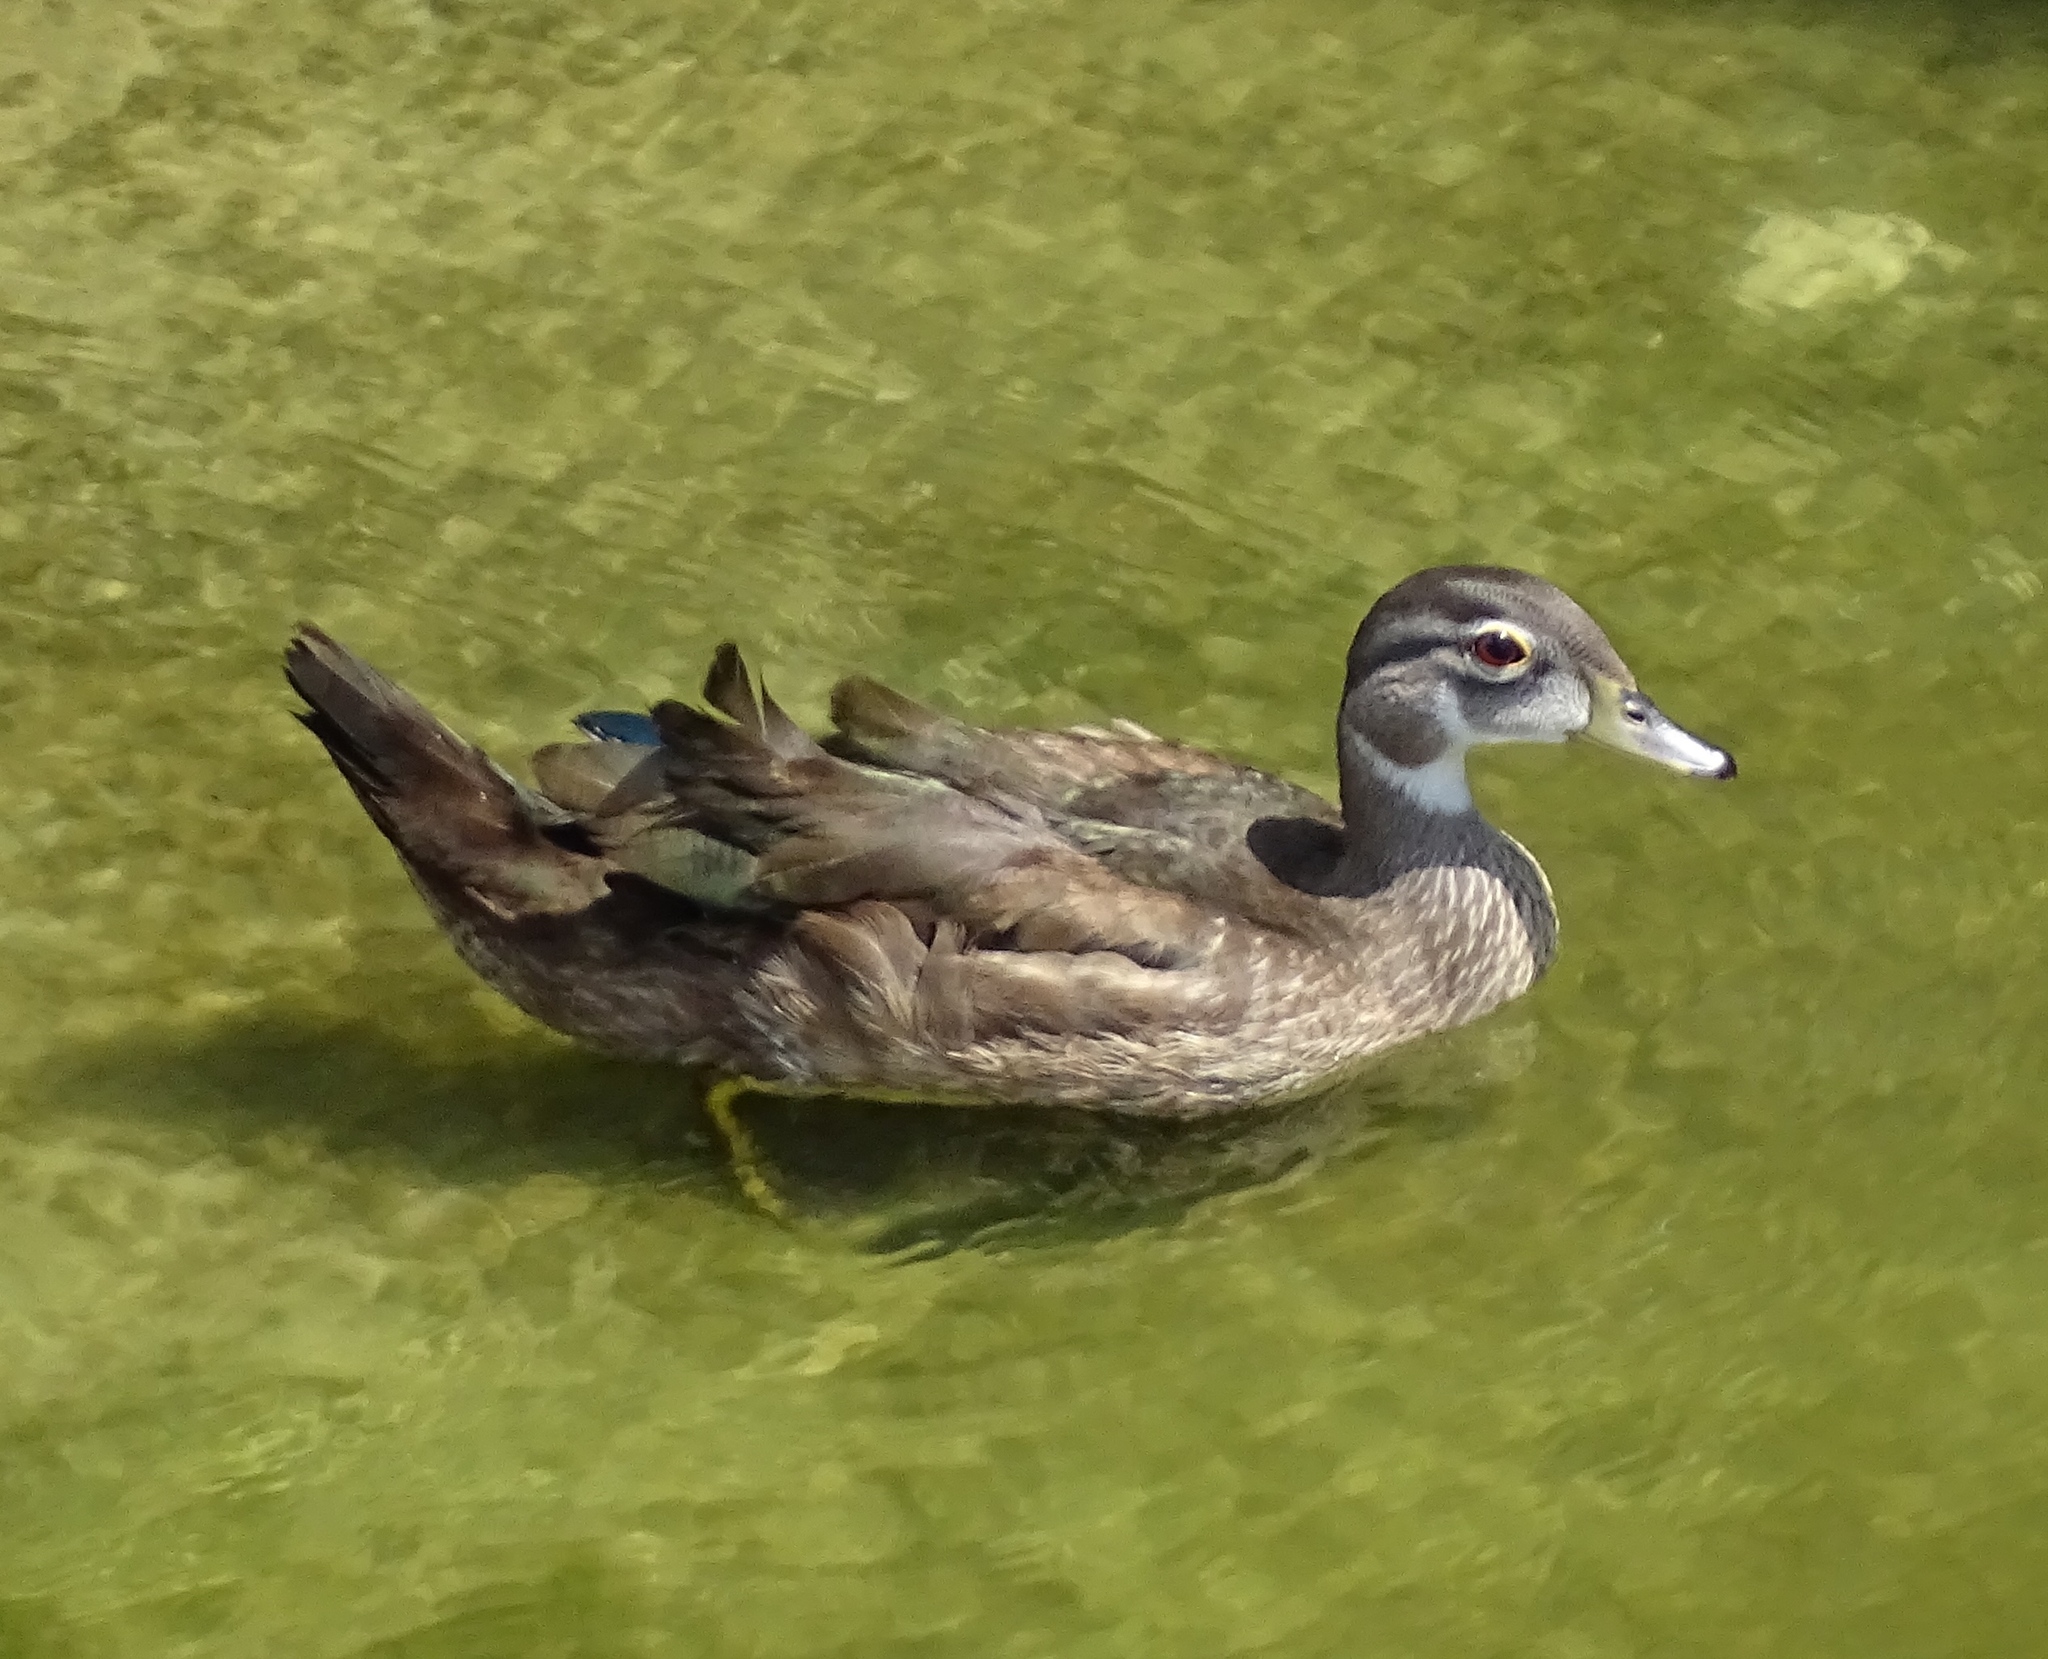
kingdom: Animalia
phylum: Chordata
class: Aves
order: Anseriformes
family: Anatidae
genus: Aix
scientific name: Aix sponsa
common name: Wood duck
